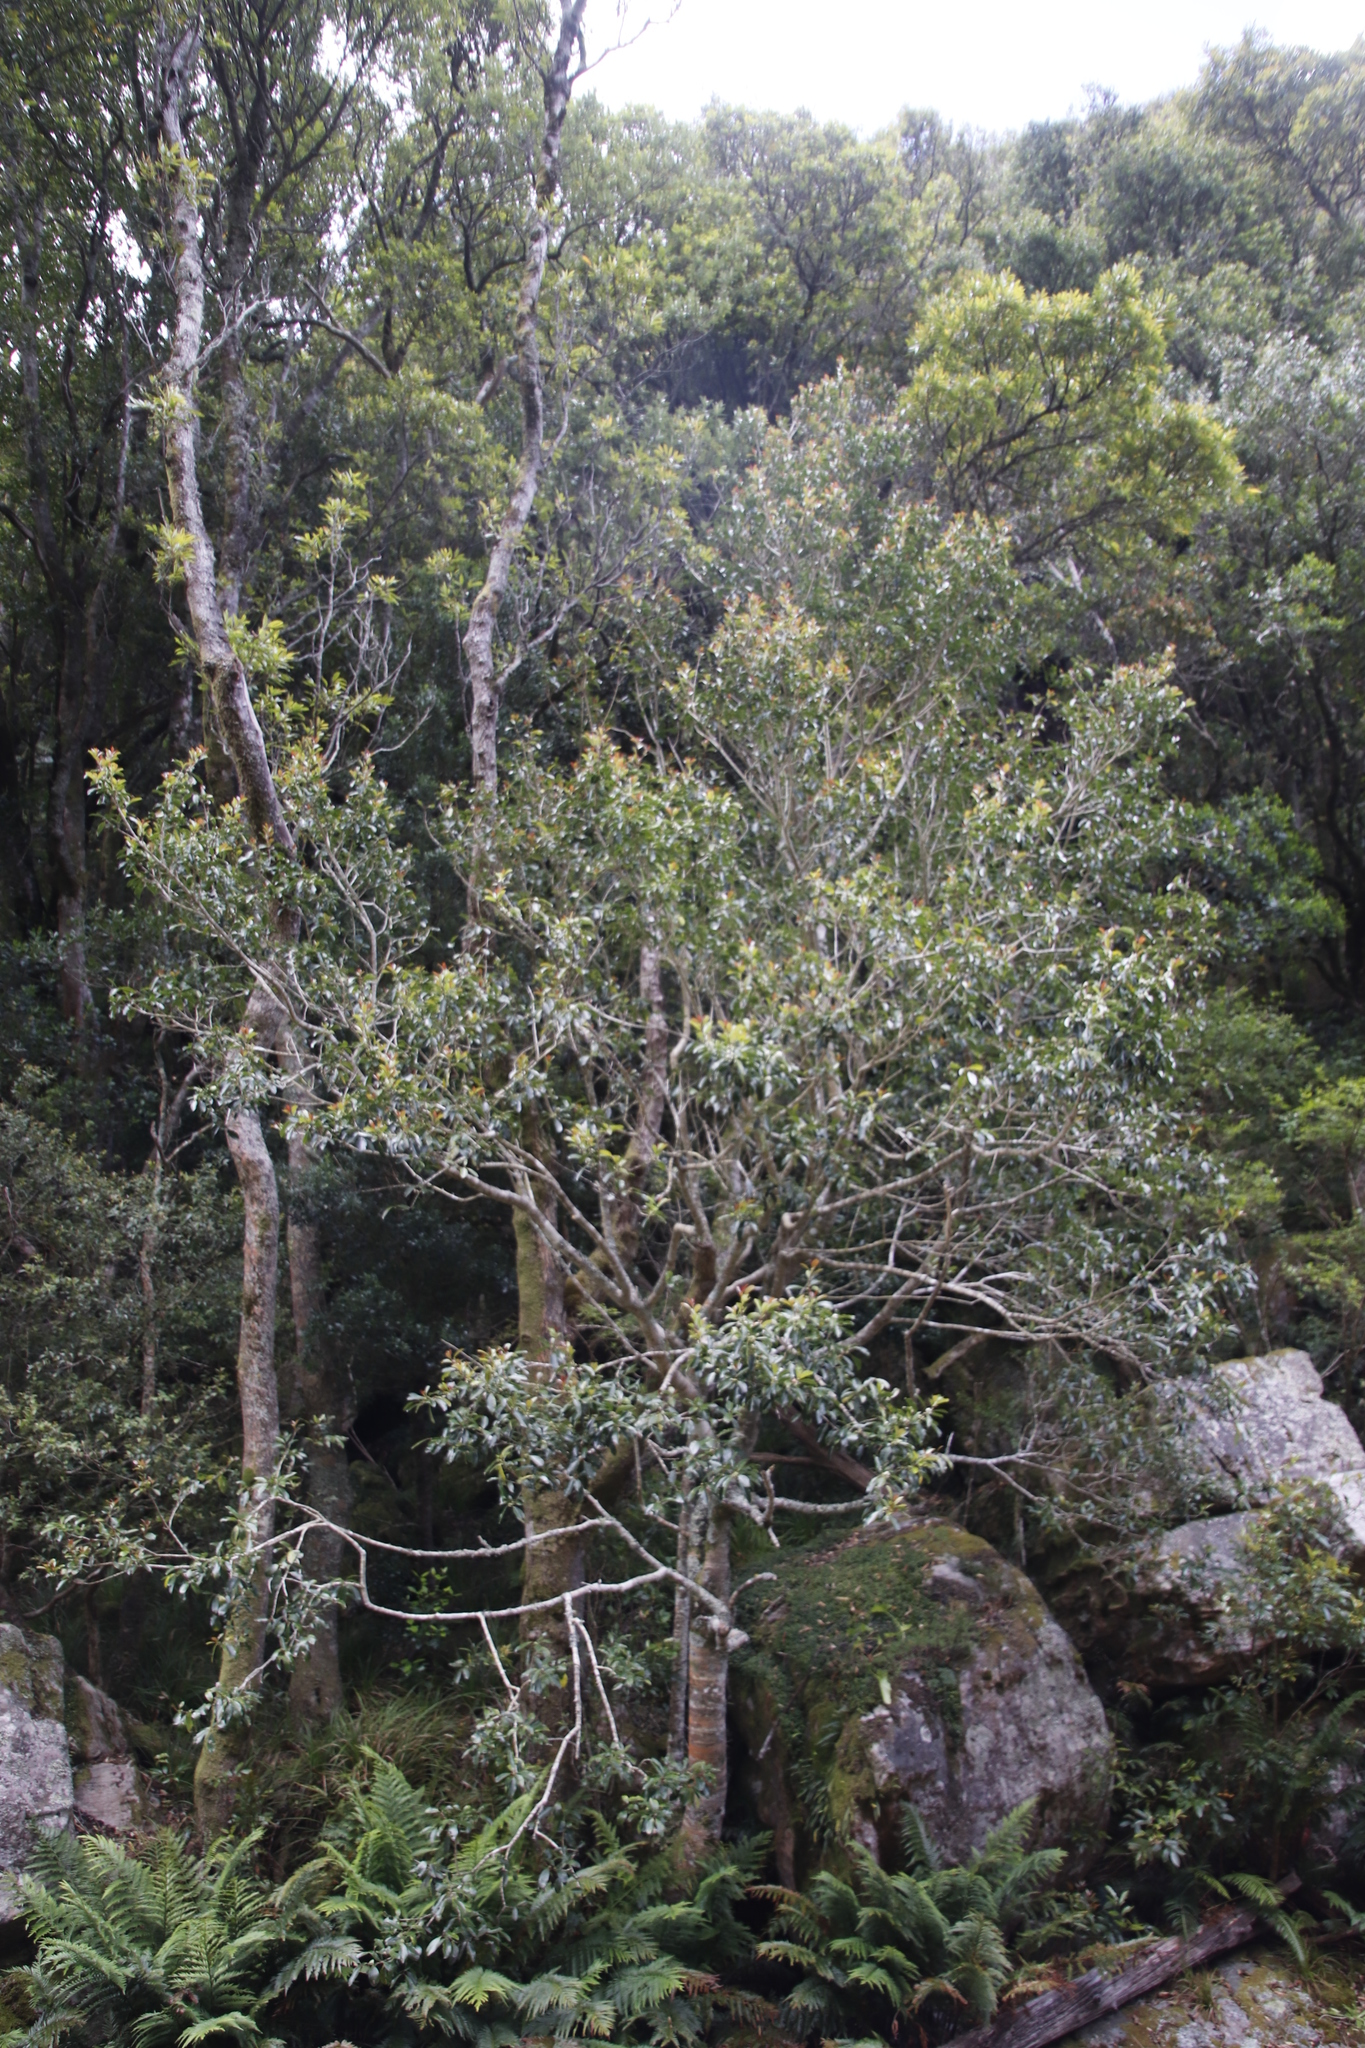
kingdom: Plantae
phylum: Tracheophyta
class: Magnoliopsida
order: Aquifoliales
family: Aquifoliaceae
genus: Ilex
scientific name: Ilex mitis
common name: African holly
